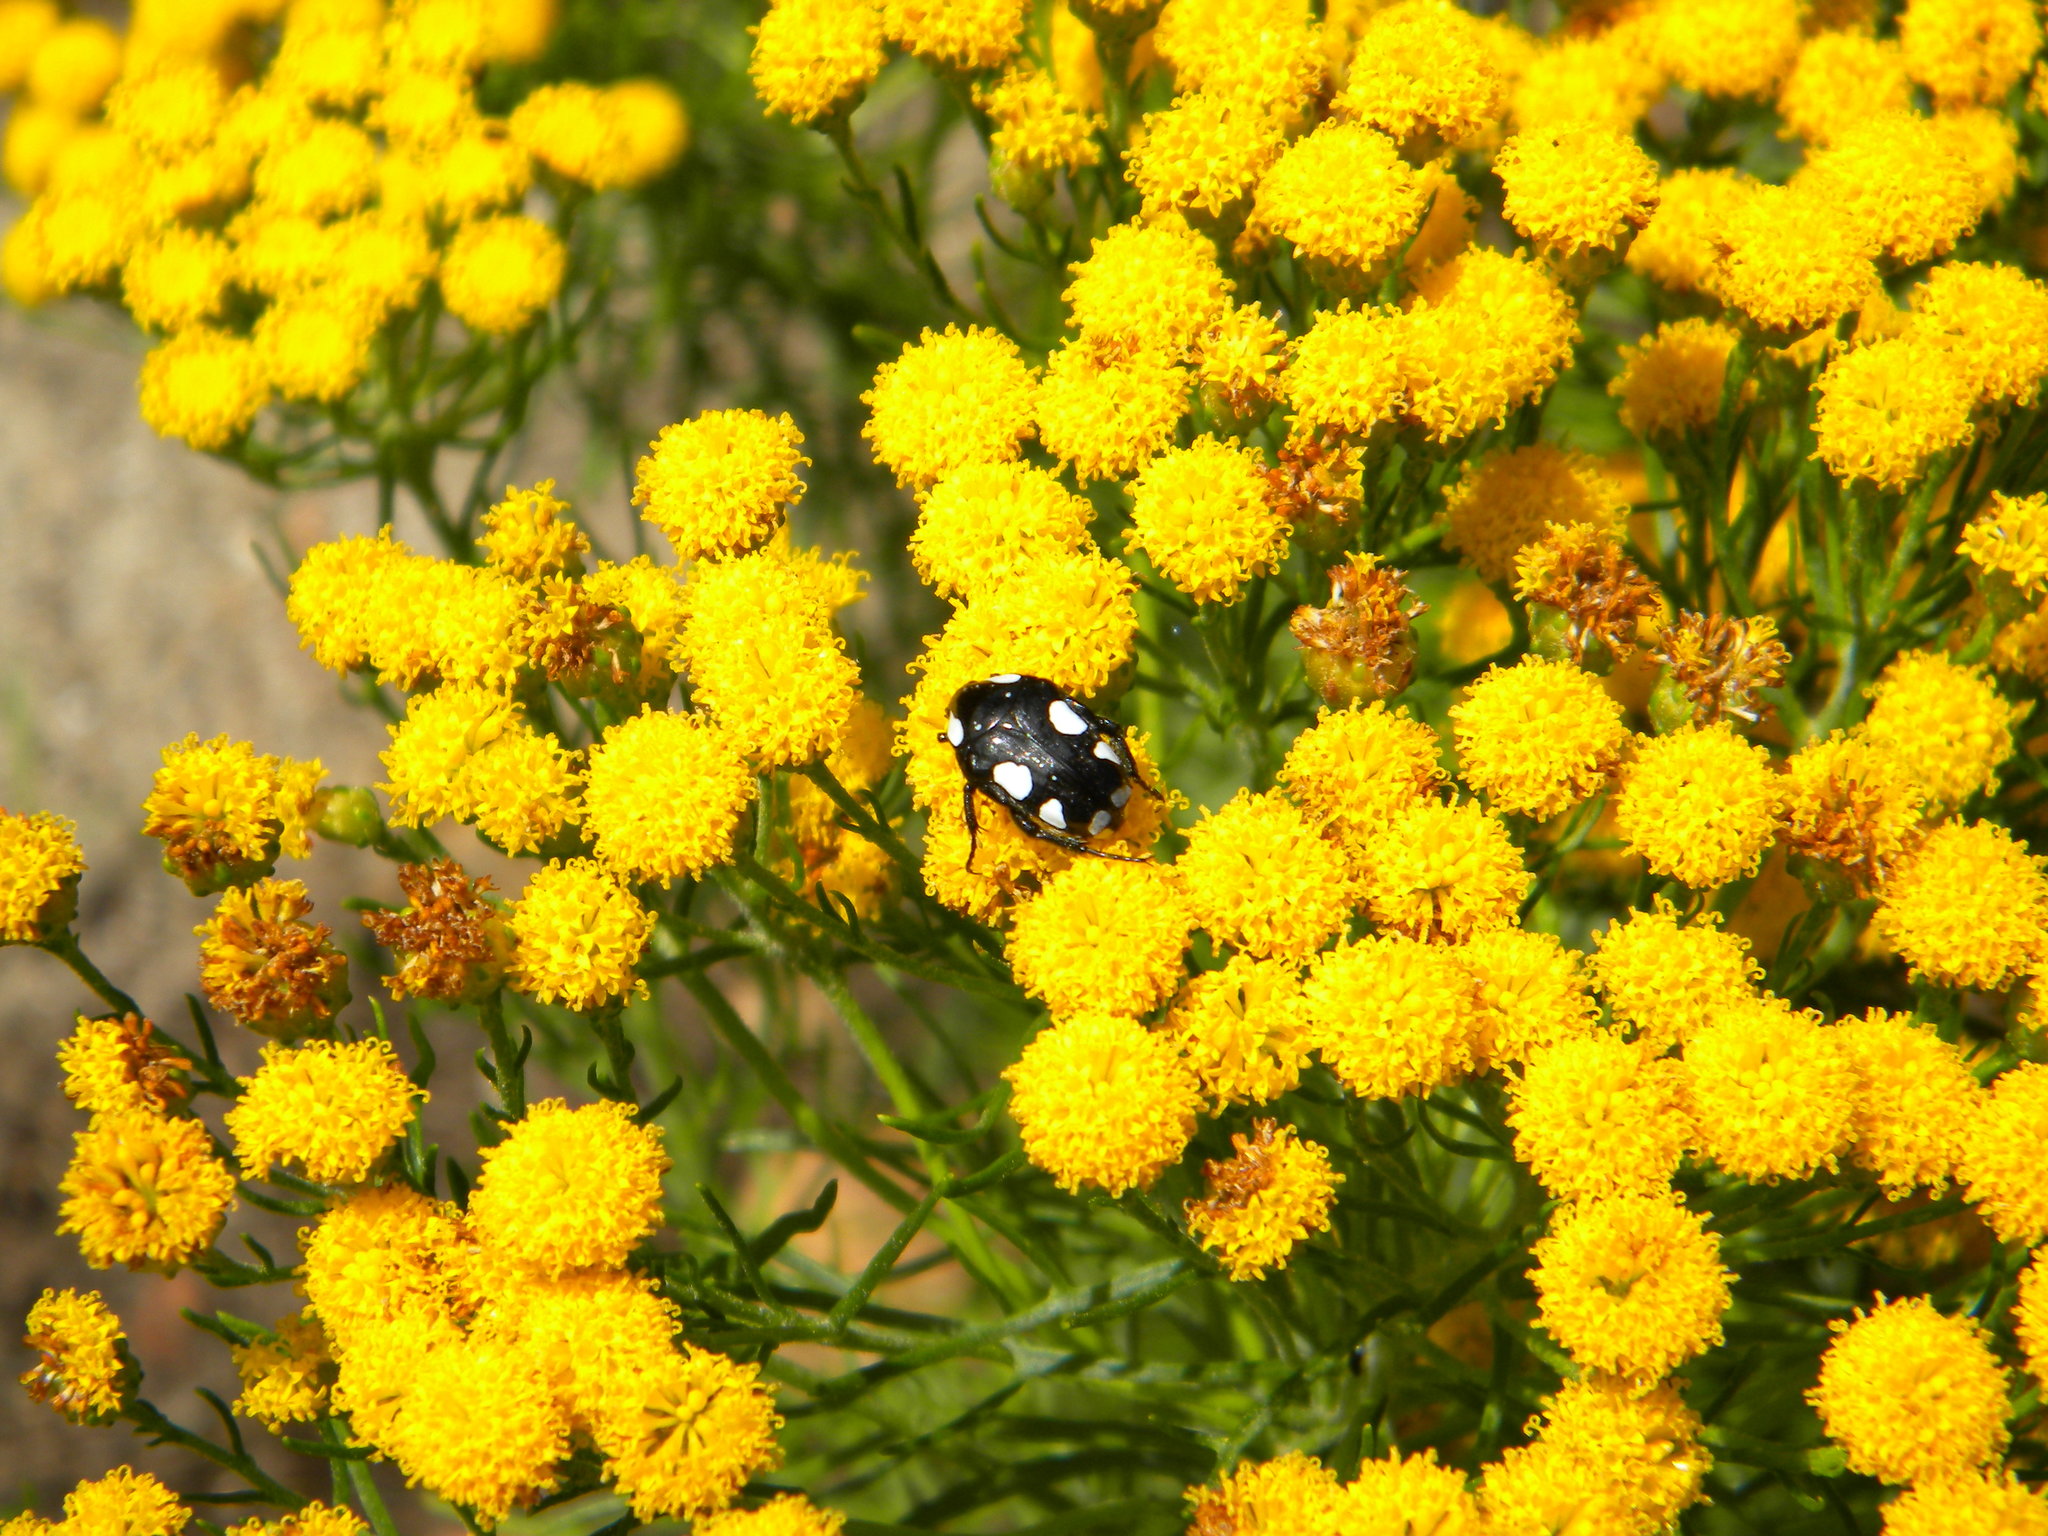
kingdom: Animalia
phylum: Arthropoda
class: Insecta
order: Coleoptera
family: Scarabaeidae
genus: Mausoleopsis
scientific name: Mausoleopsis amabilis
